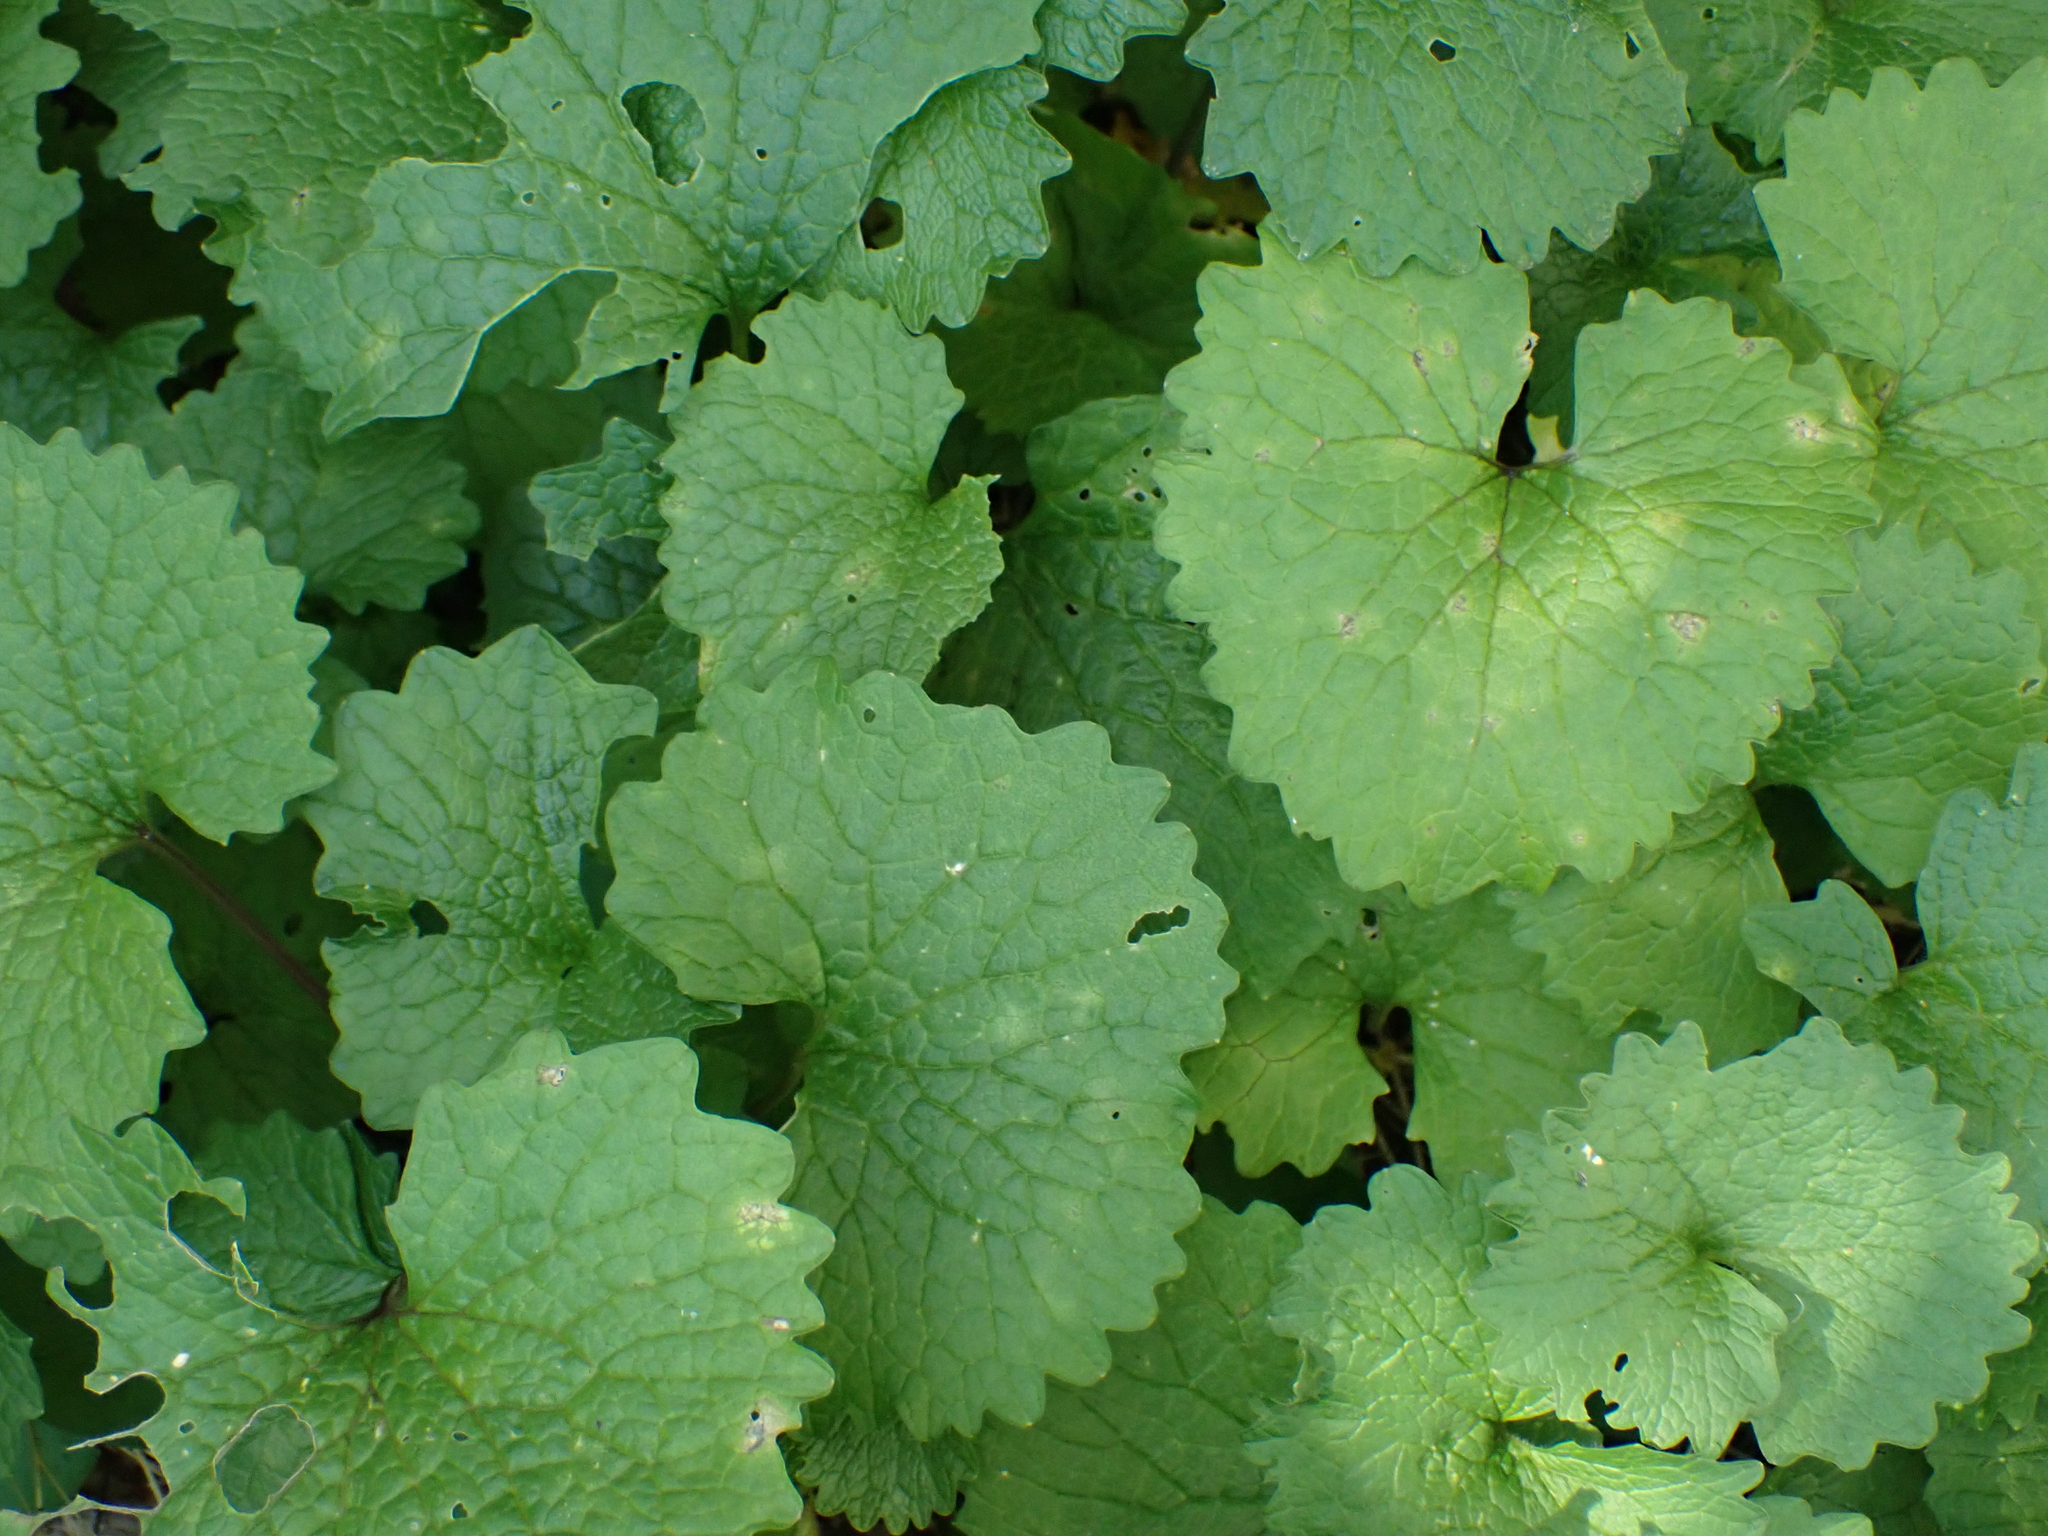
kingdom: Plantae
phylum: Tracheophyta
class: Magnoliopsida
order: Brassicales
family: Brassicaceae
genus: Alliaria
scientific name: Alliaria petiolata
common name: Garlic mustard
